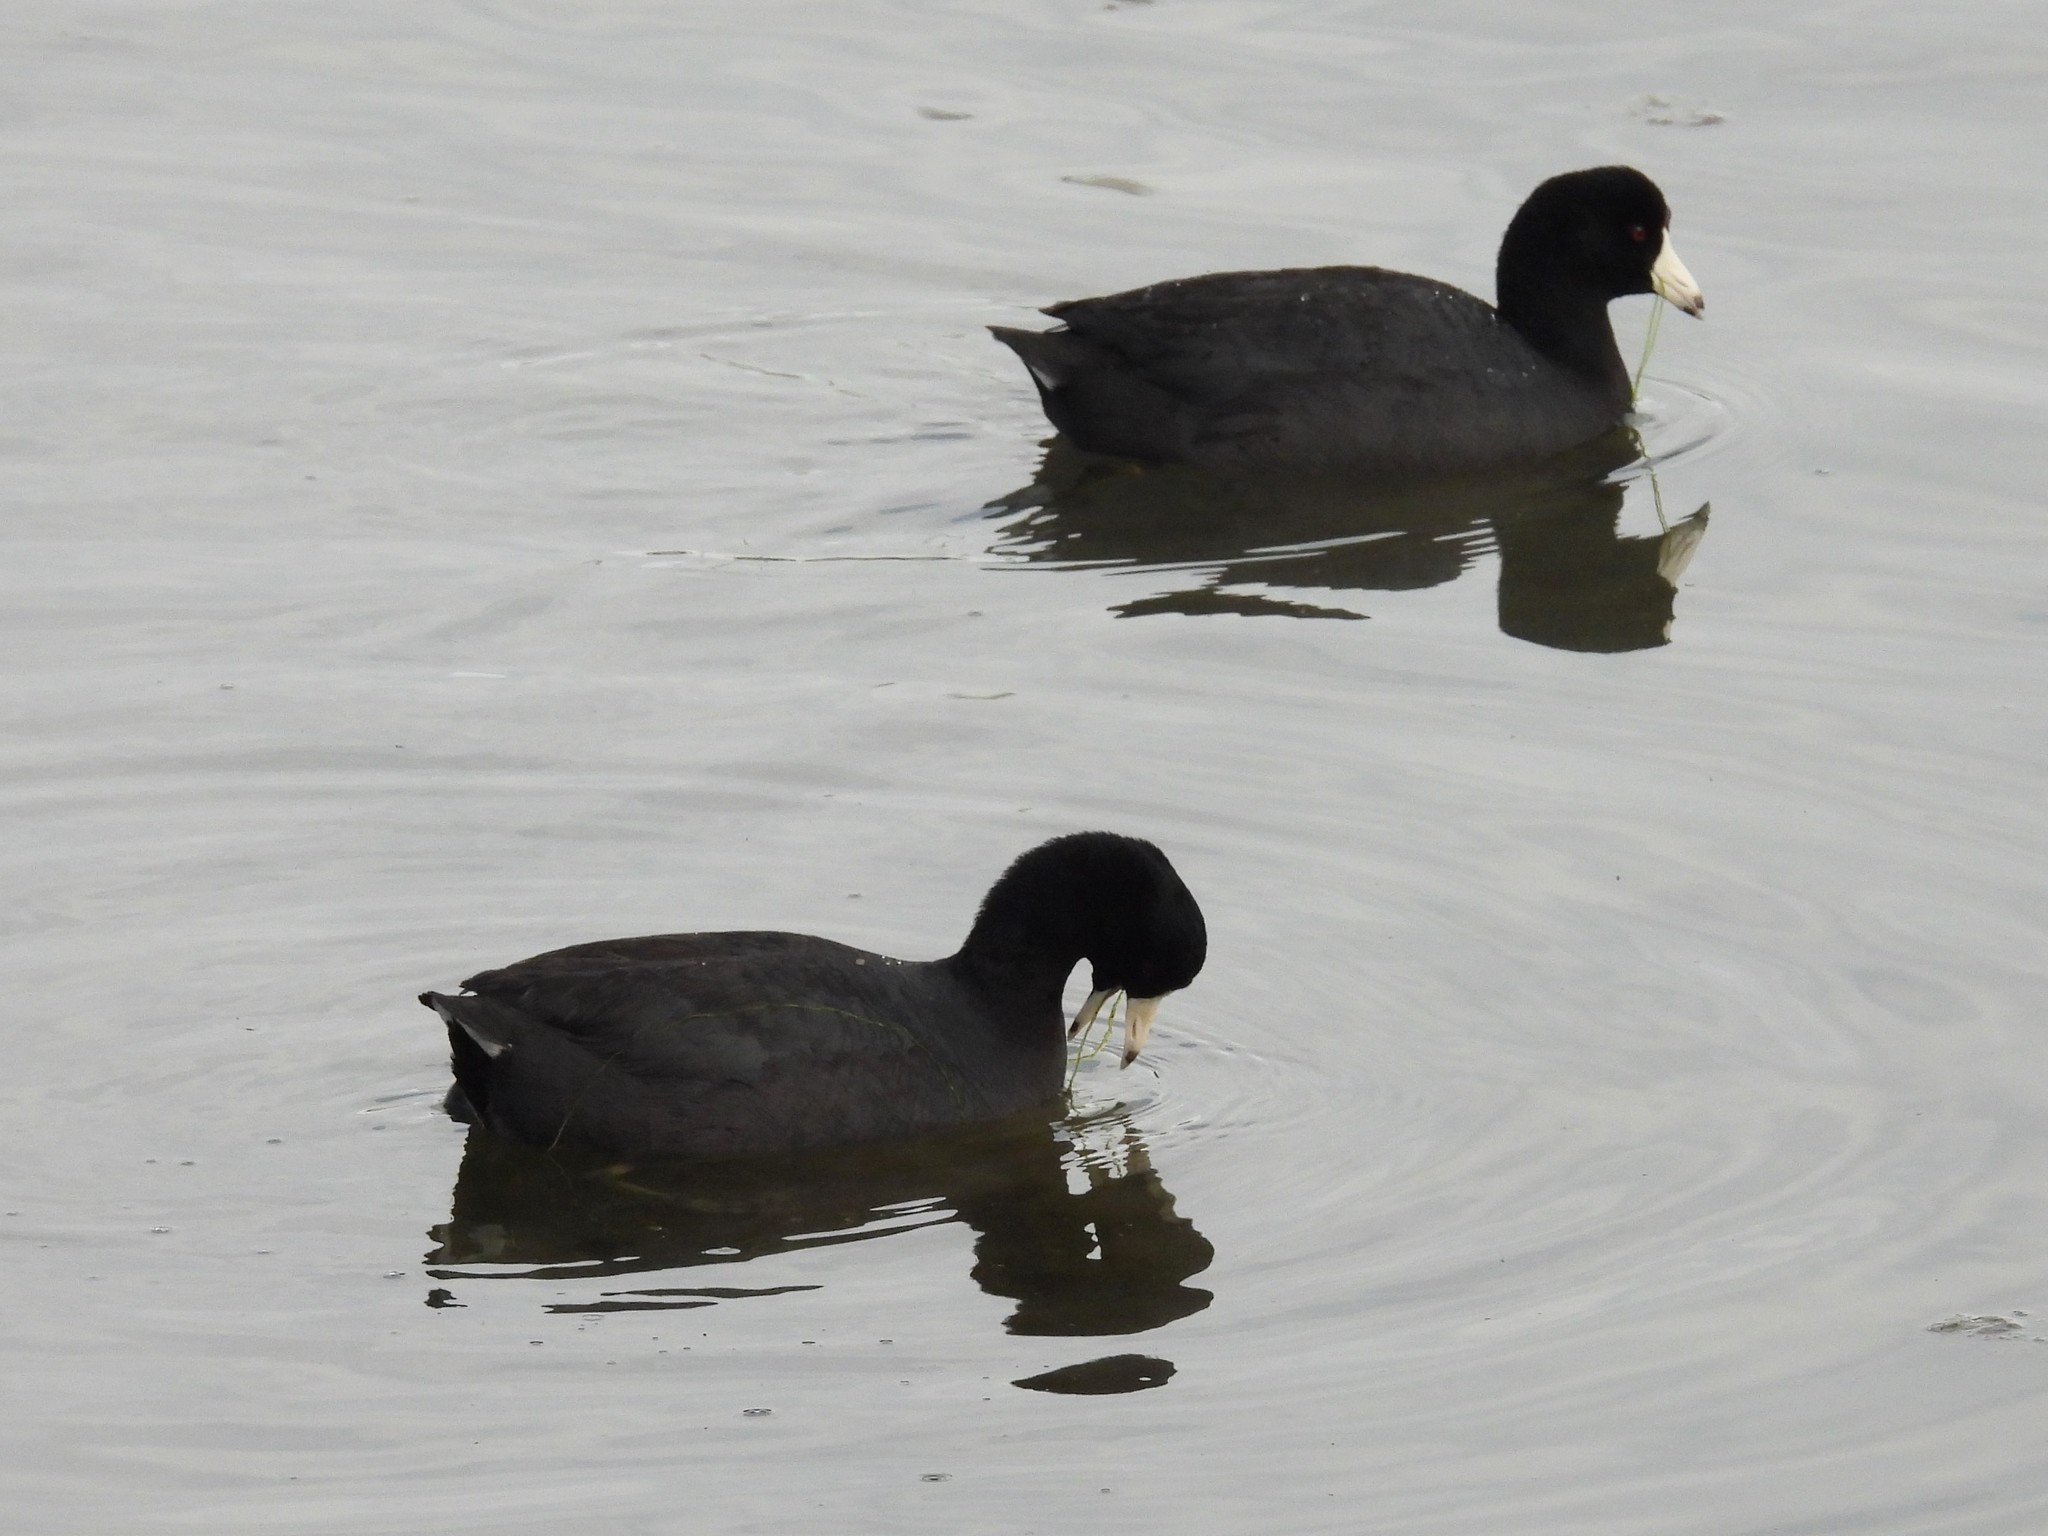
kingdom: Animalia
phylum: Chordata
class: Aves
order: Gruiformes
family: Rallidae
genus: Fulica
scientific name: Fulica americana
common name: American coot
